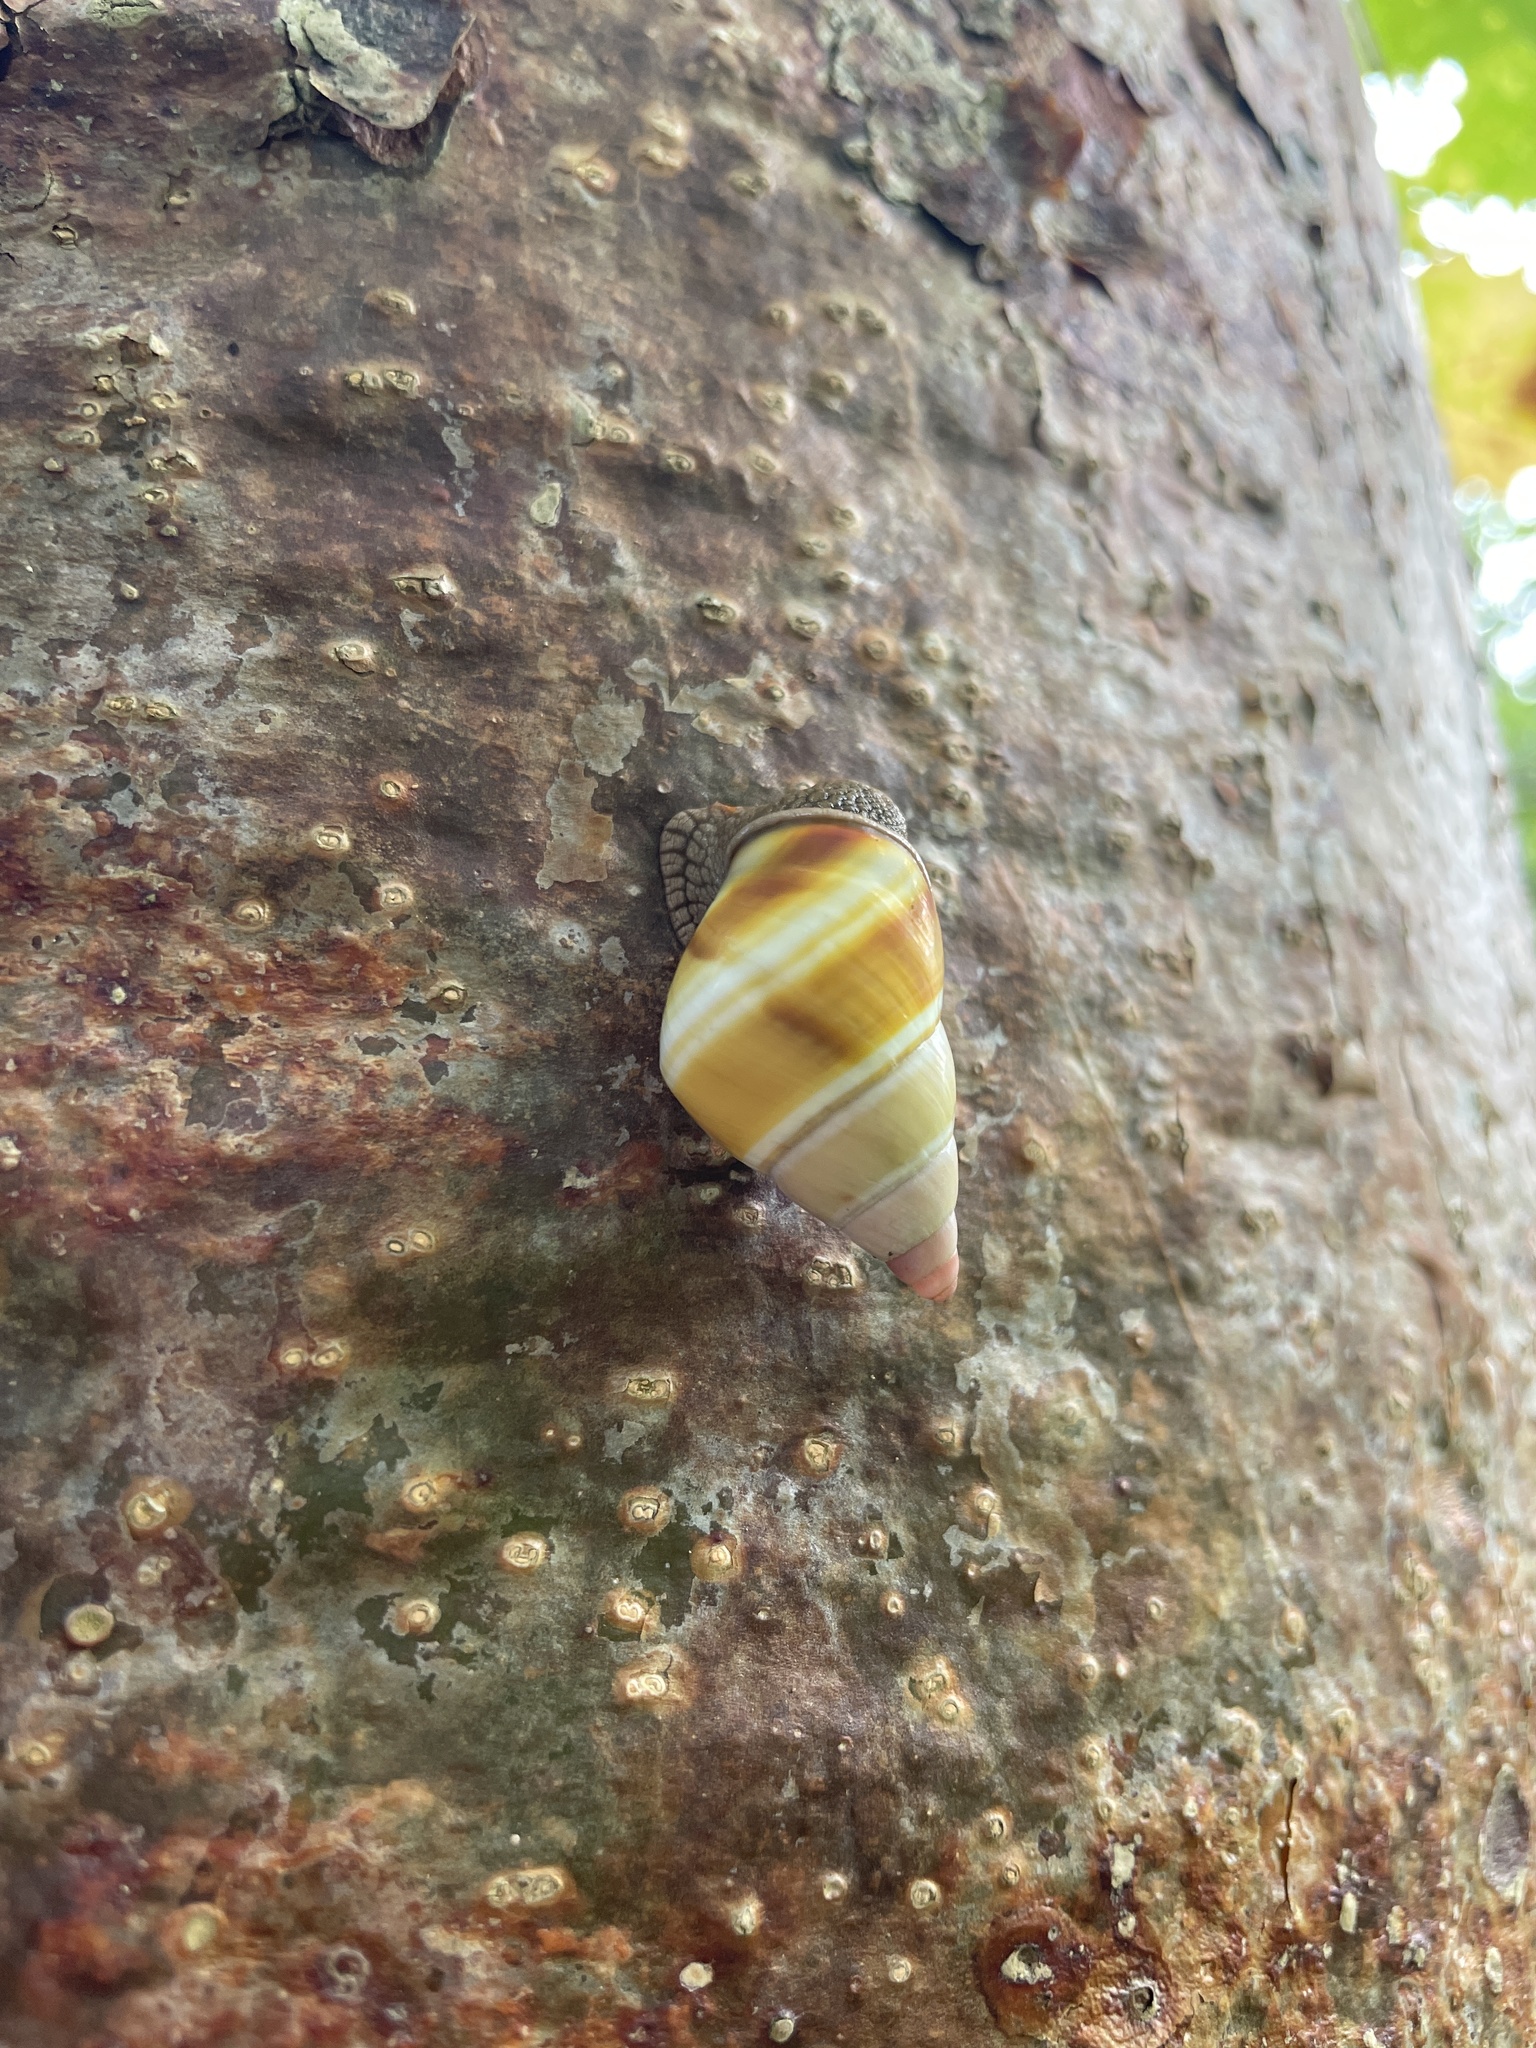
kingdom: Animalia
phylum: Mollusca
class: Gastropoda
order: Stylommatophora
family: Orthalicidae
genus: Liguus
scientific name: Liguus fasciatus
